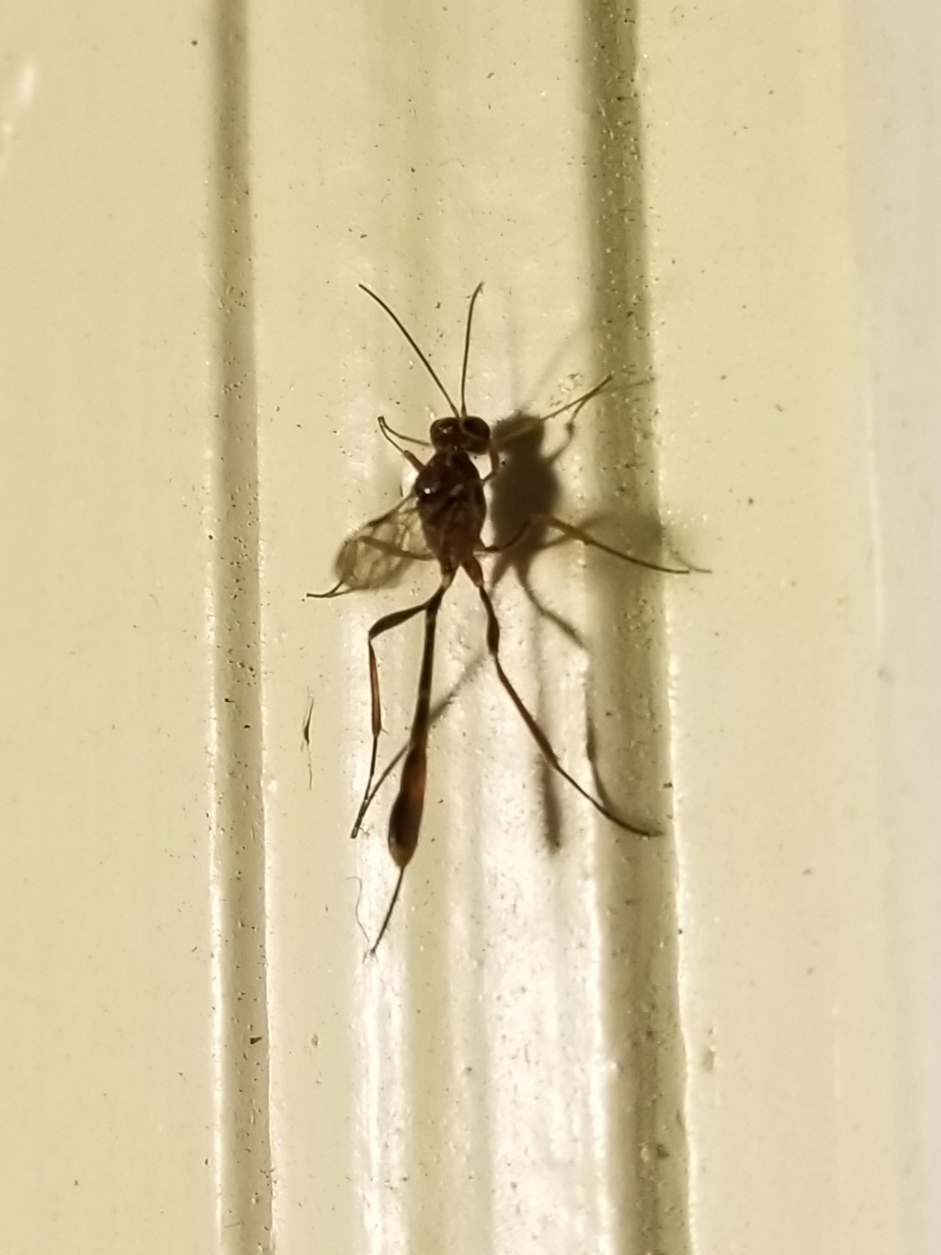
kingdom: Animalia
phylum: Arthropoda
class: Insecta
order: Hymenoptera
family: Ichneumonidae
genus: Anomalon
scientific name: Anomalon
